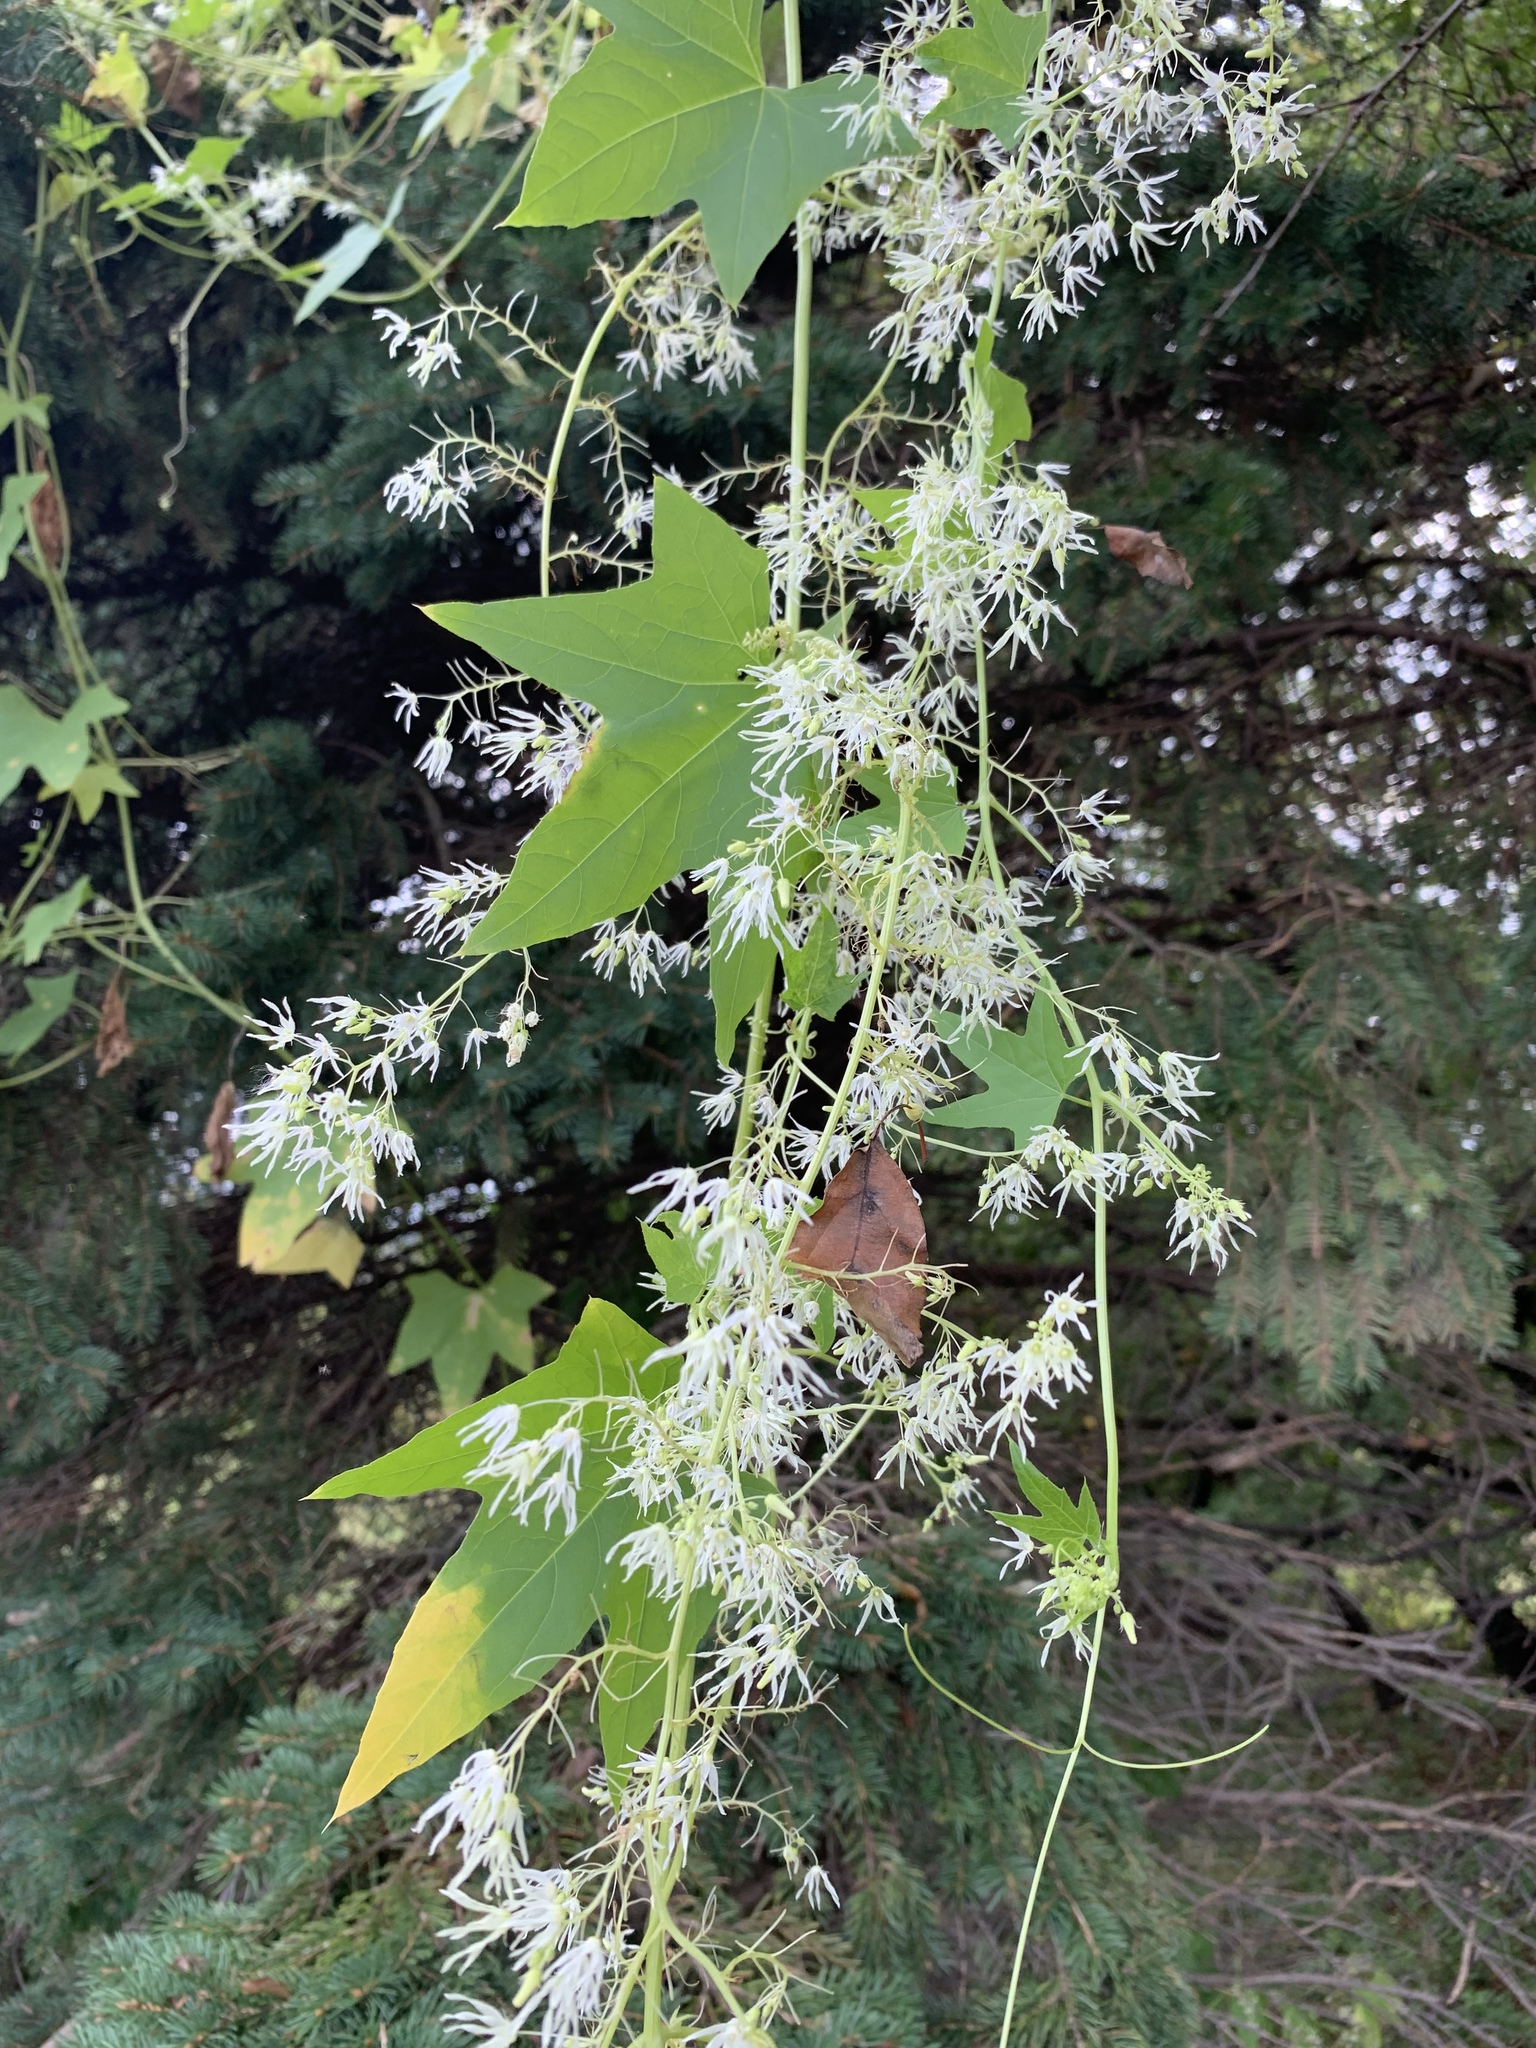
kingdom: Plantae
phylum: Tracheophyta
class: Magnoliopsida
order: Cucurbitales
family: Cucurbitaceae
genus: Echinocystis
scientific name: Echinocystis lobata
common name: Wild cucumber
